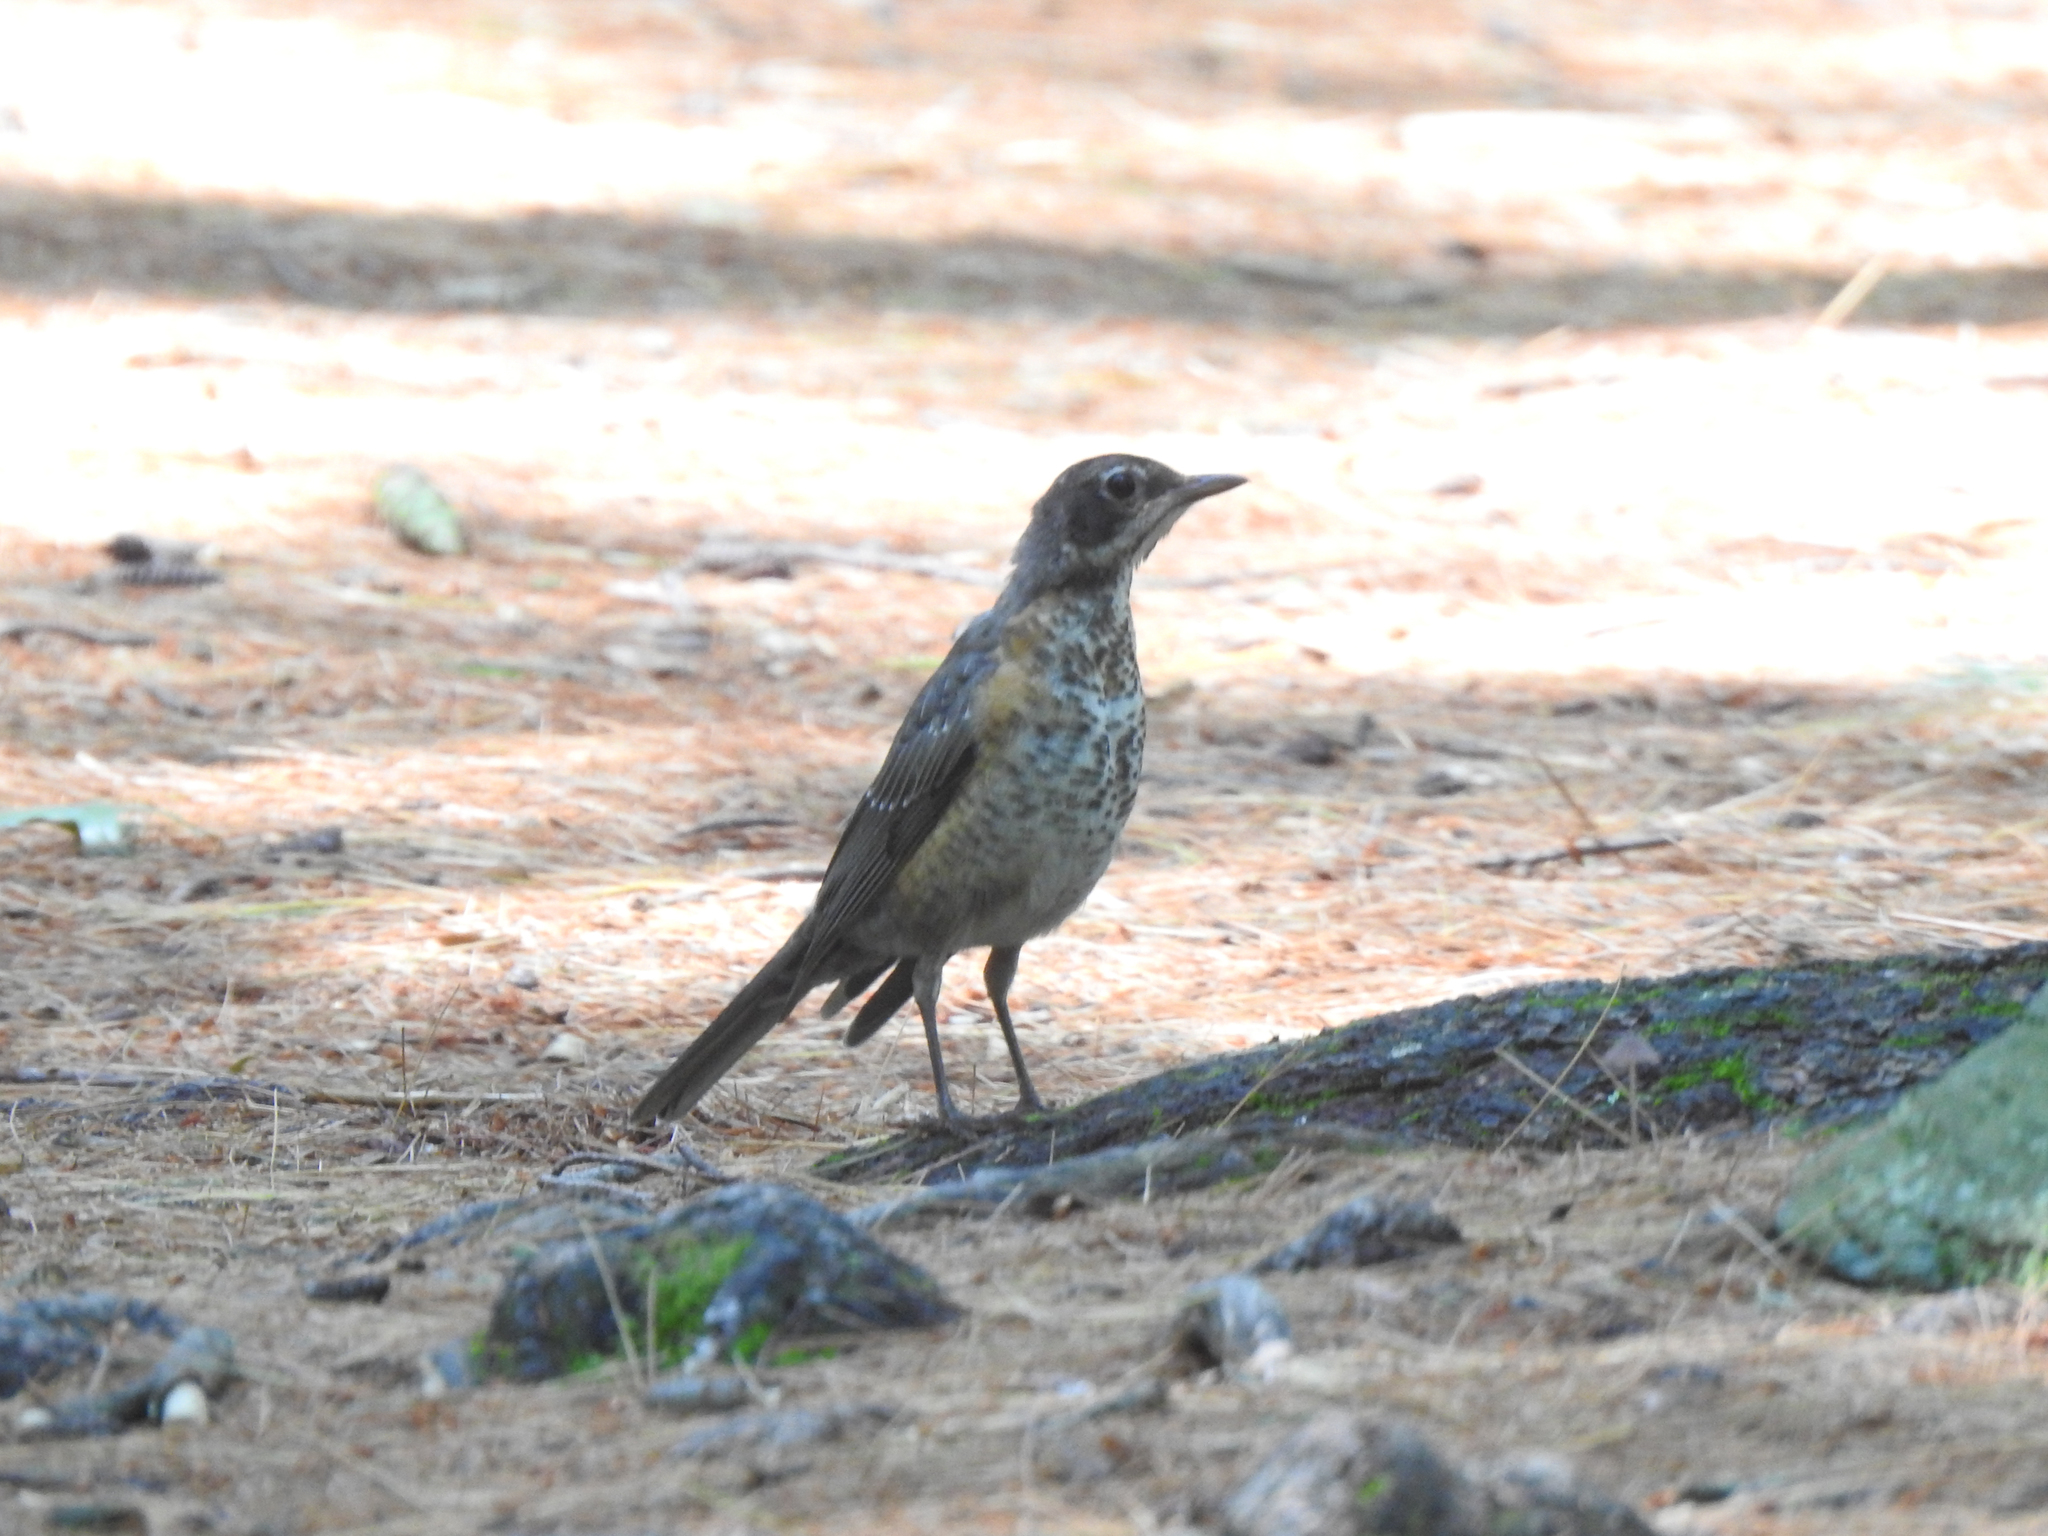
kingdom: Animalia
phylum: Chordata
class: Aves
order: Passeriformes
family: Turdidae
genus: Turdus
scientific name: Turdus migratorius
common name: American robin
